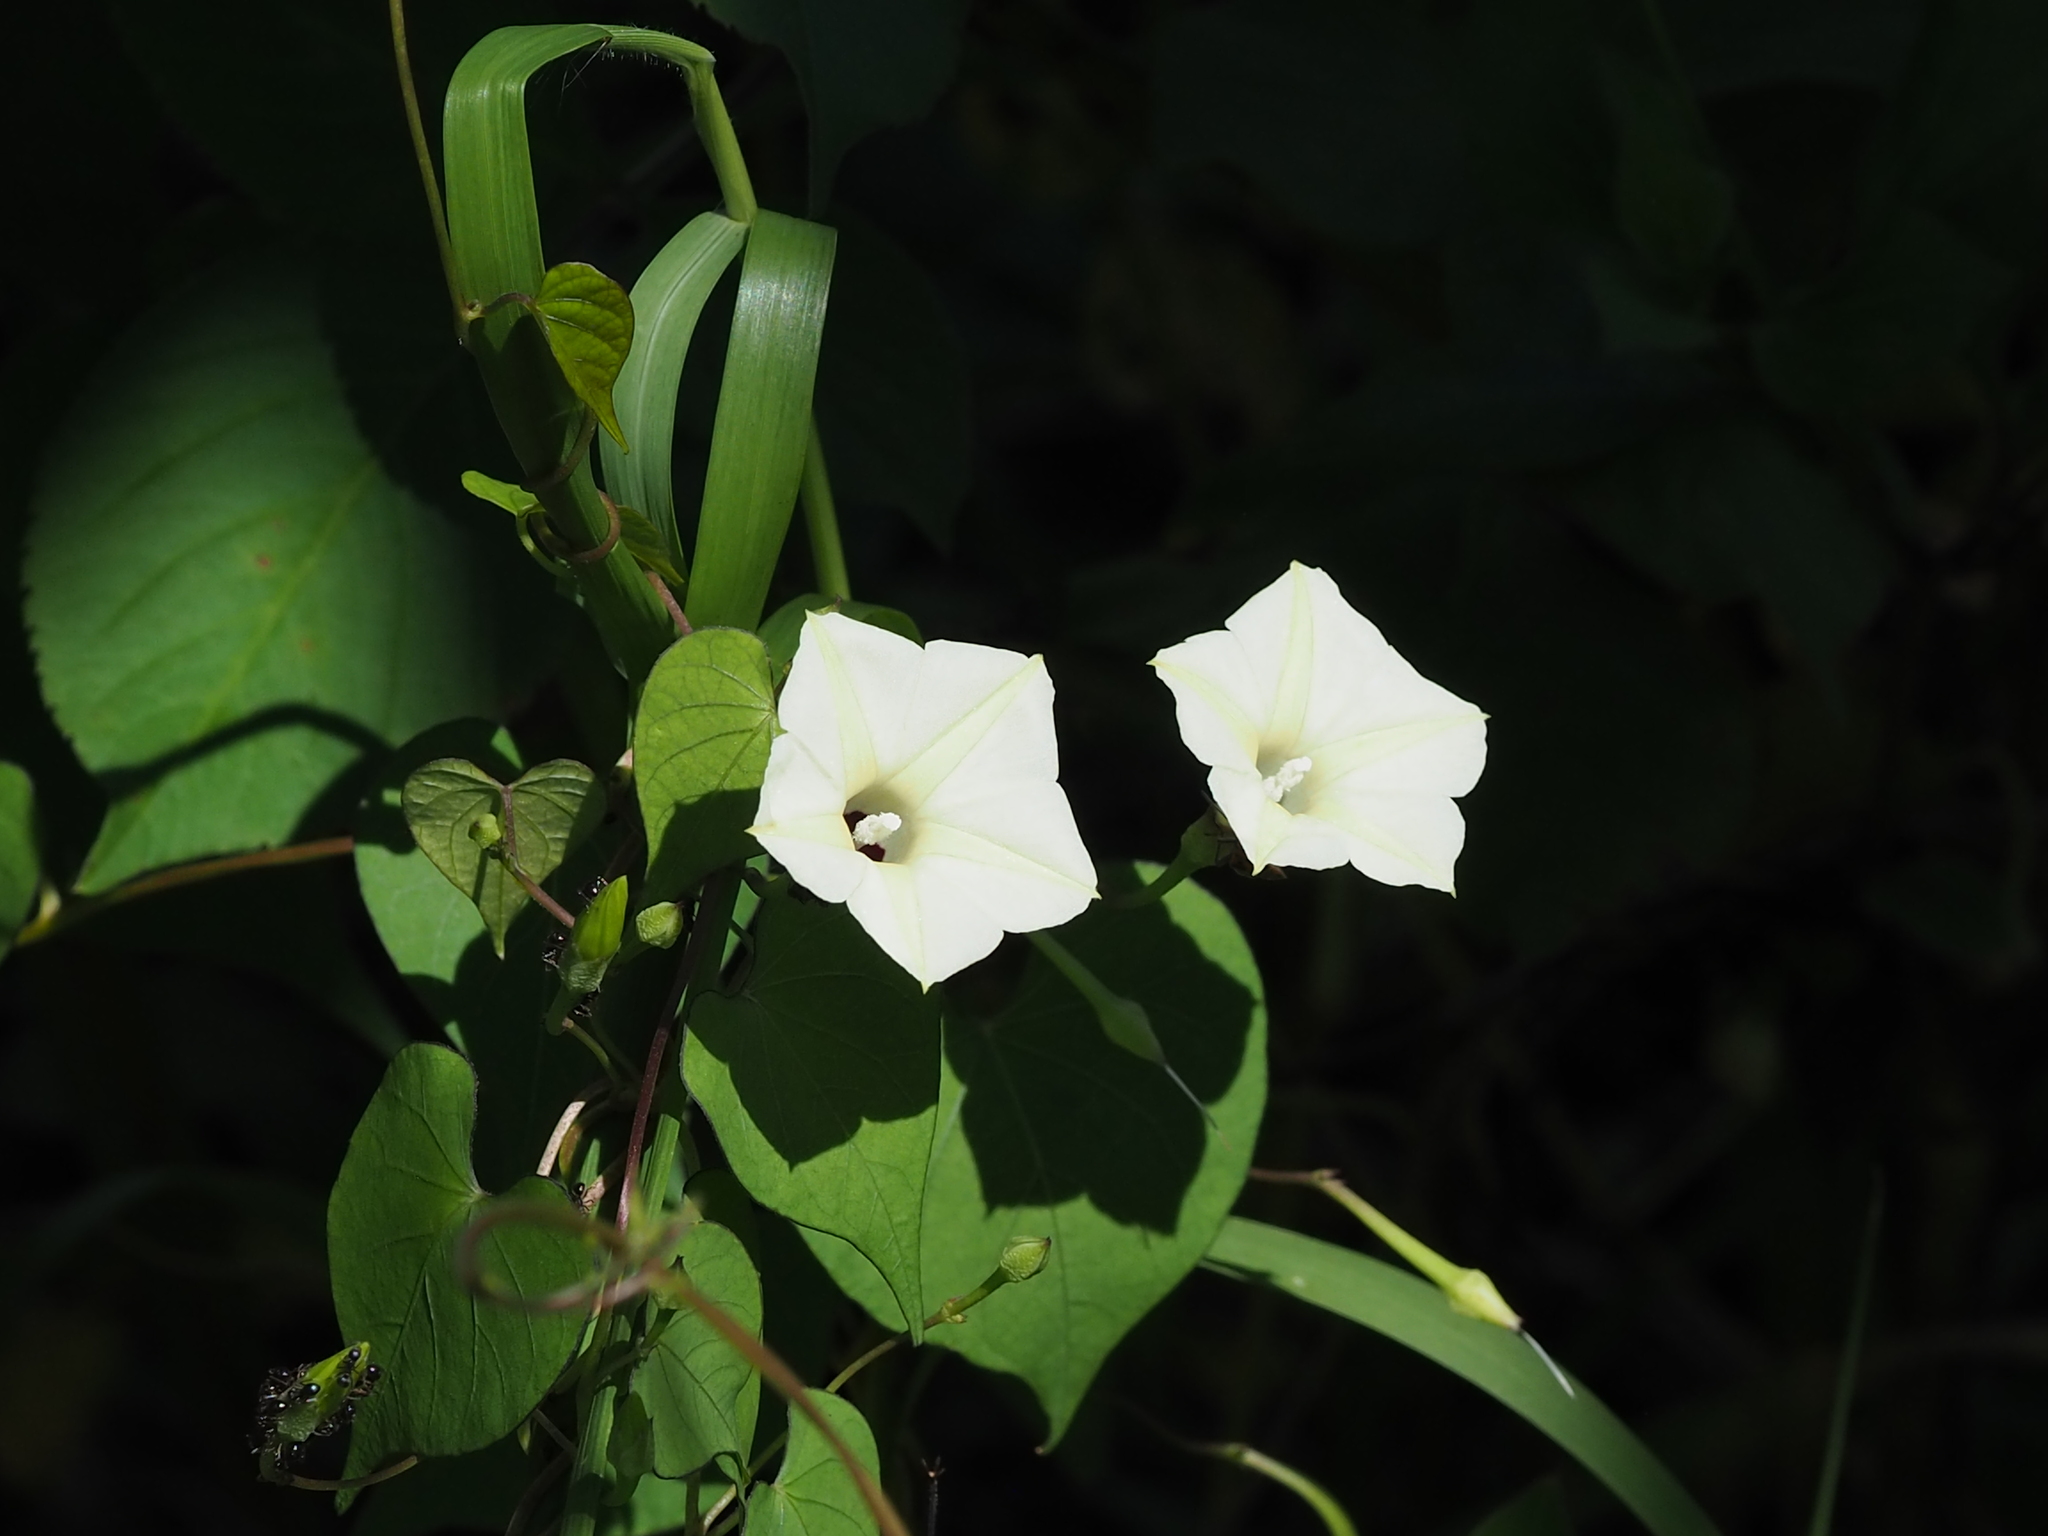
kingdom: Plantae
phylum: Tracheophyta
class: Magnoliopsida
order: Solanales
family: Convolvulaceae
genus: Ipomoea
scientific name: Ipomoea obscura
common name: Obscure morning-glory
